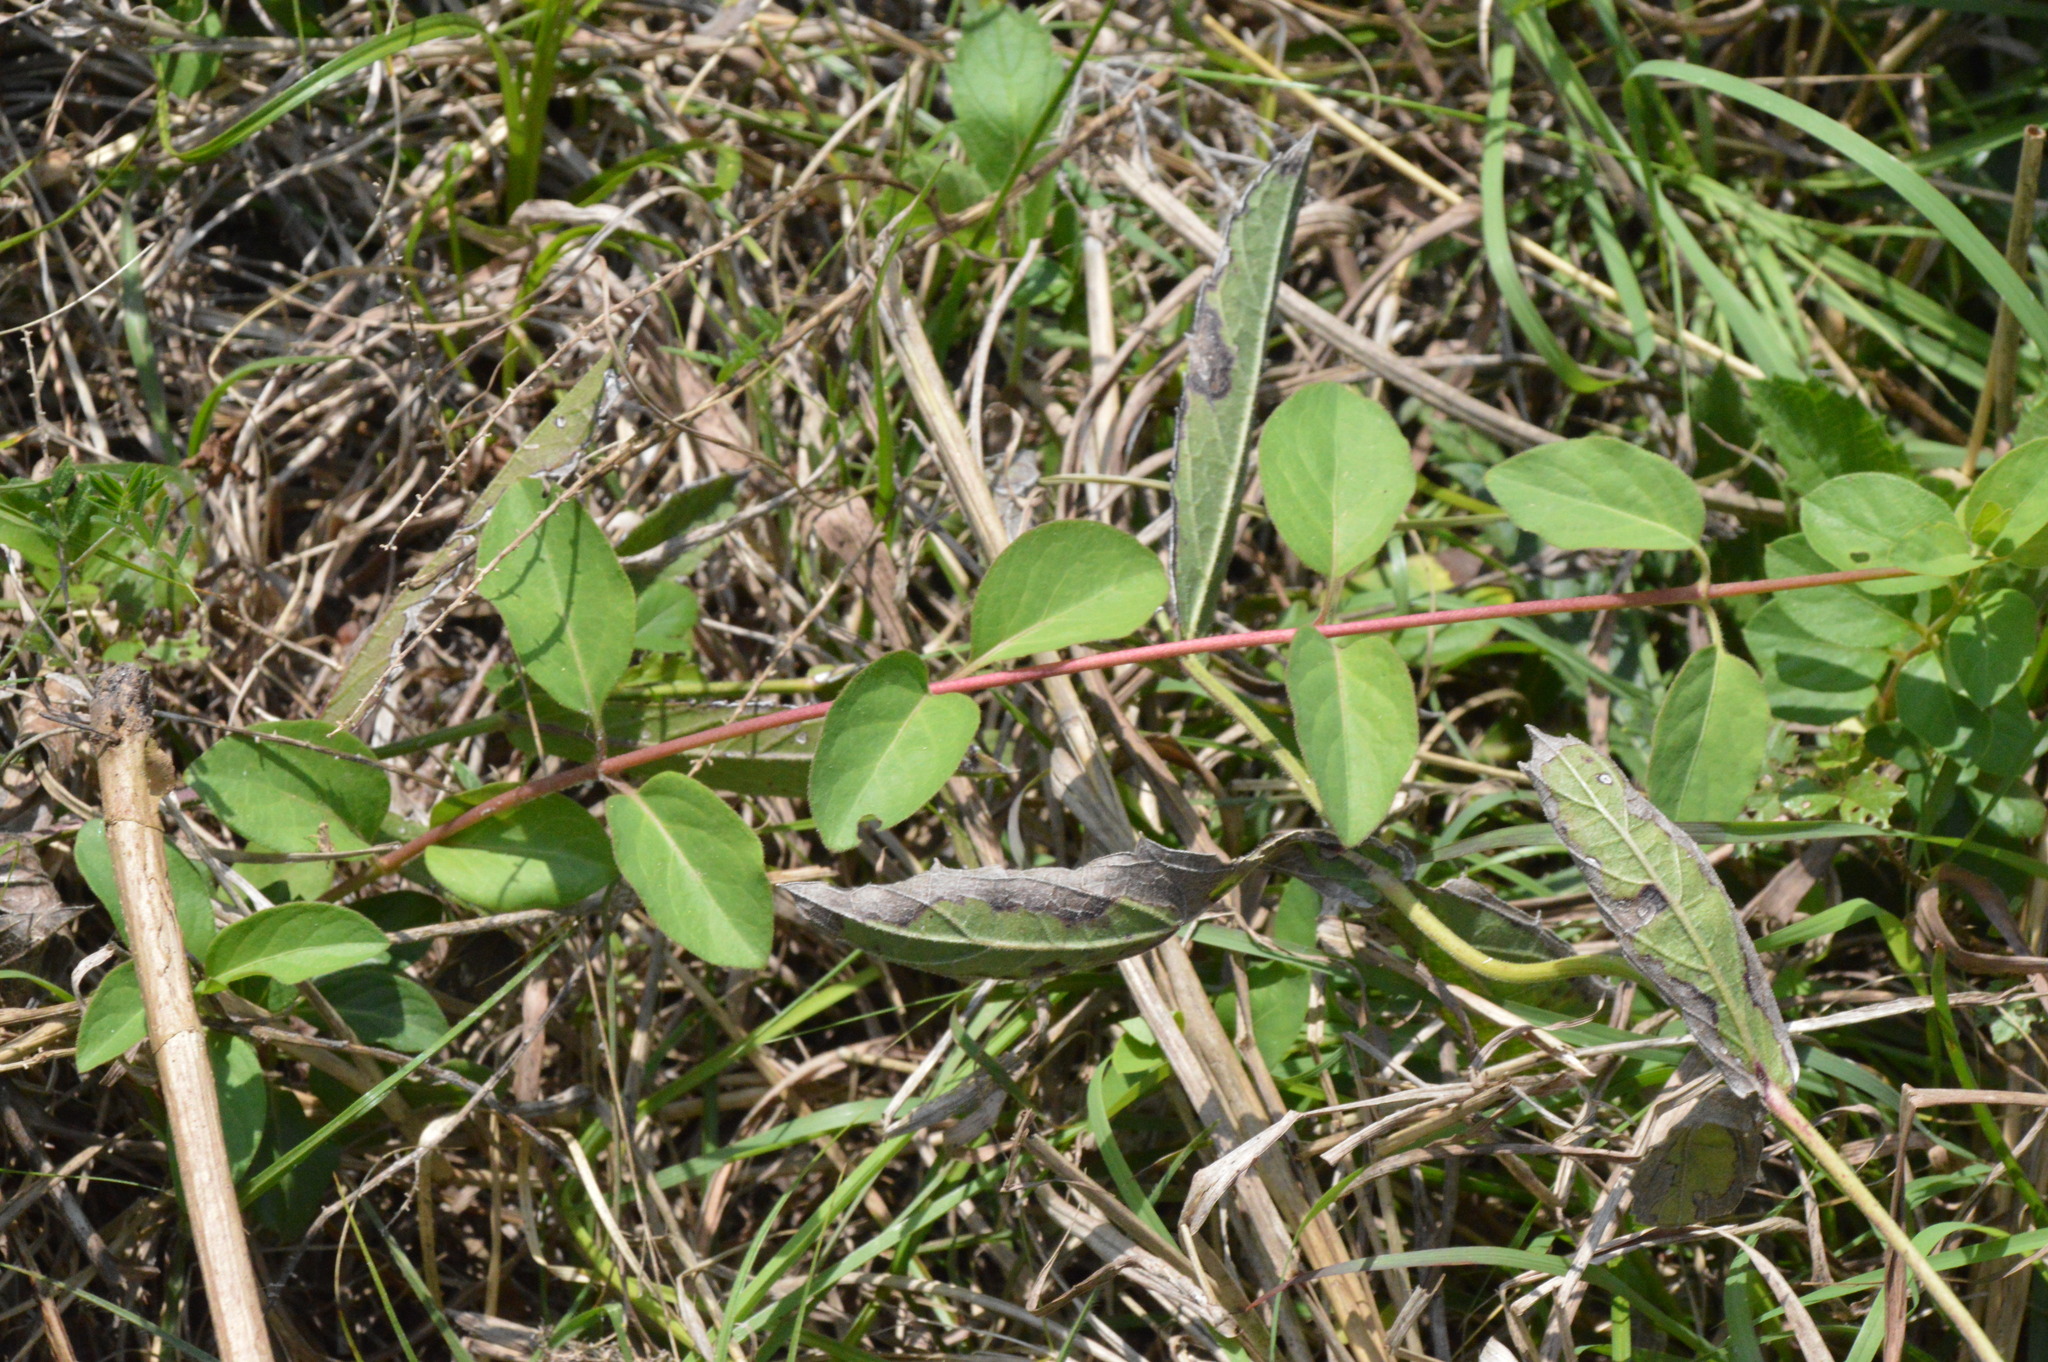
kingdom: Plantae
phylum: Tracheophyta
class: Magnoliopsida
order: Dipsacales
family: Caprifoliaceae
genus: Lonicera
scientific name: Lonicera japonica
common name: Japanese honeysuckle
